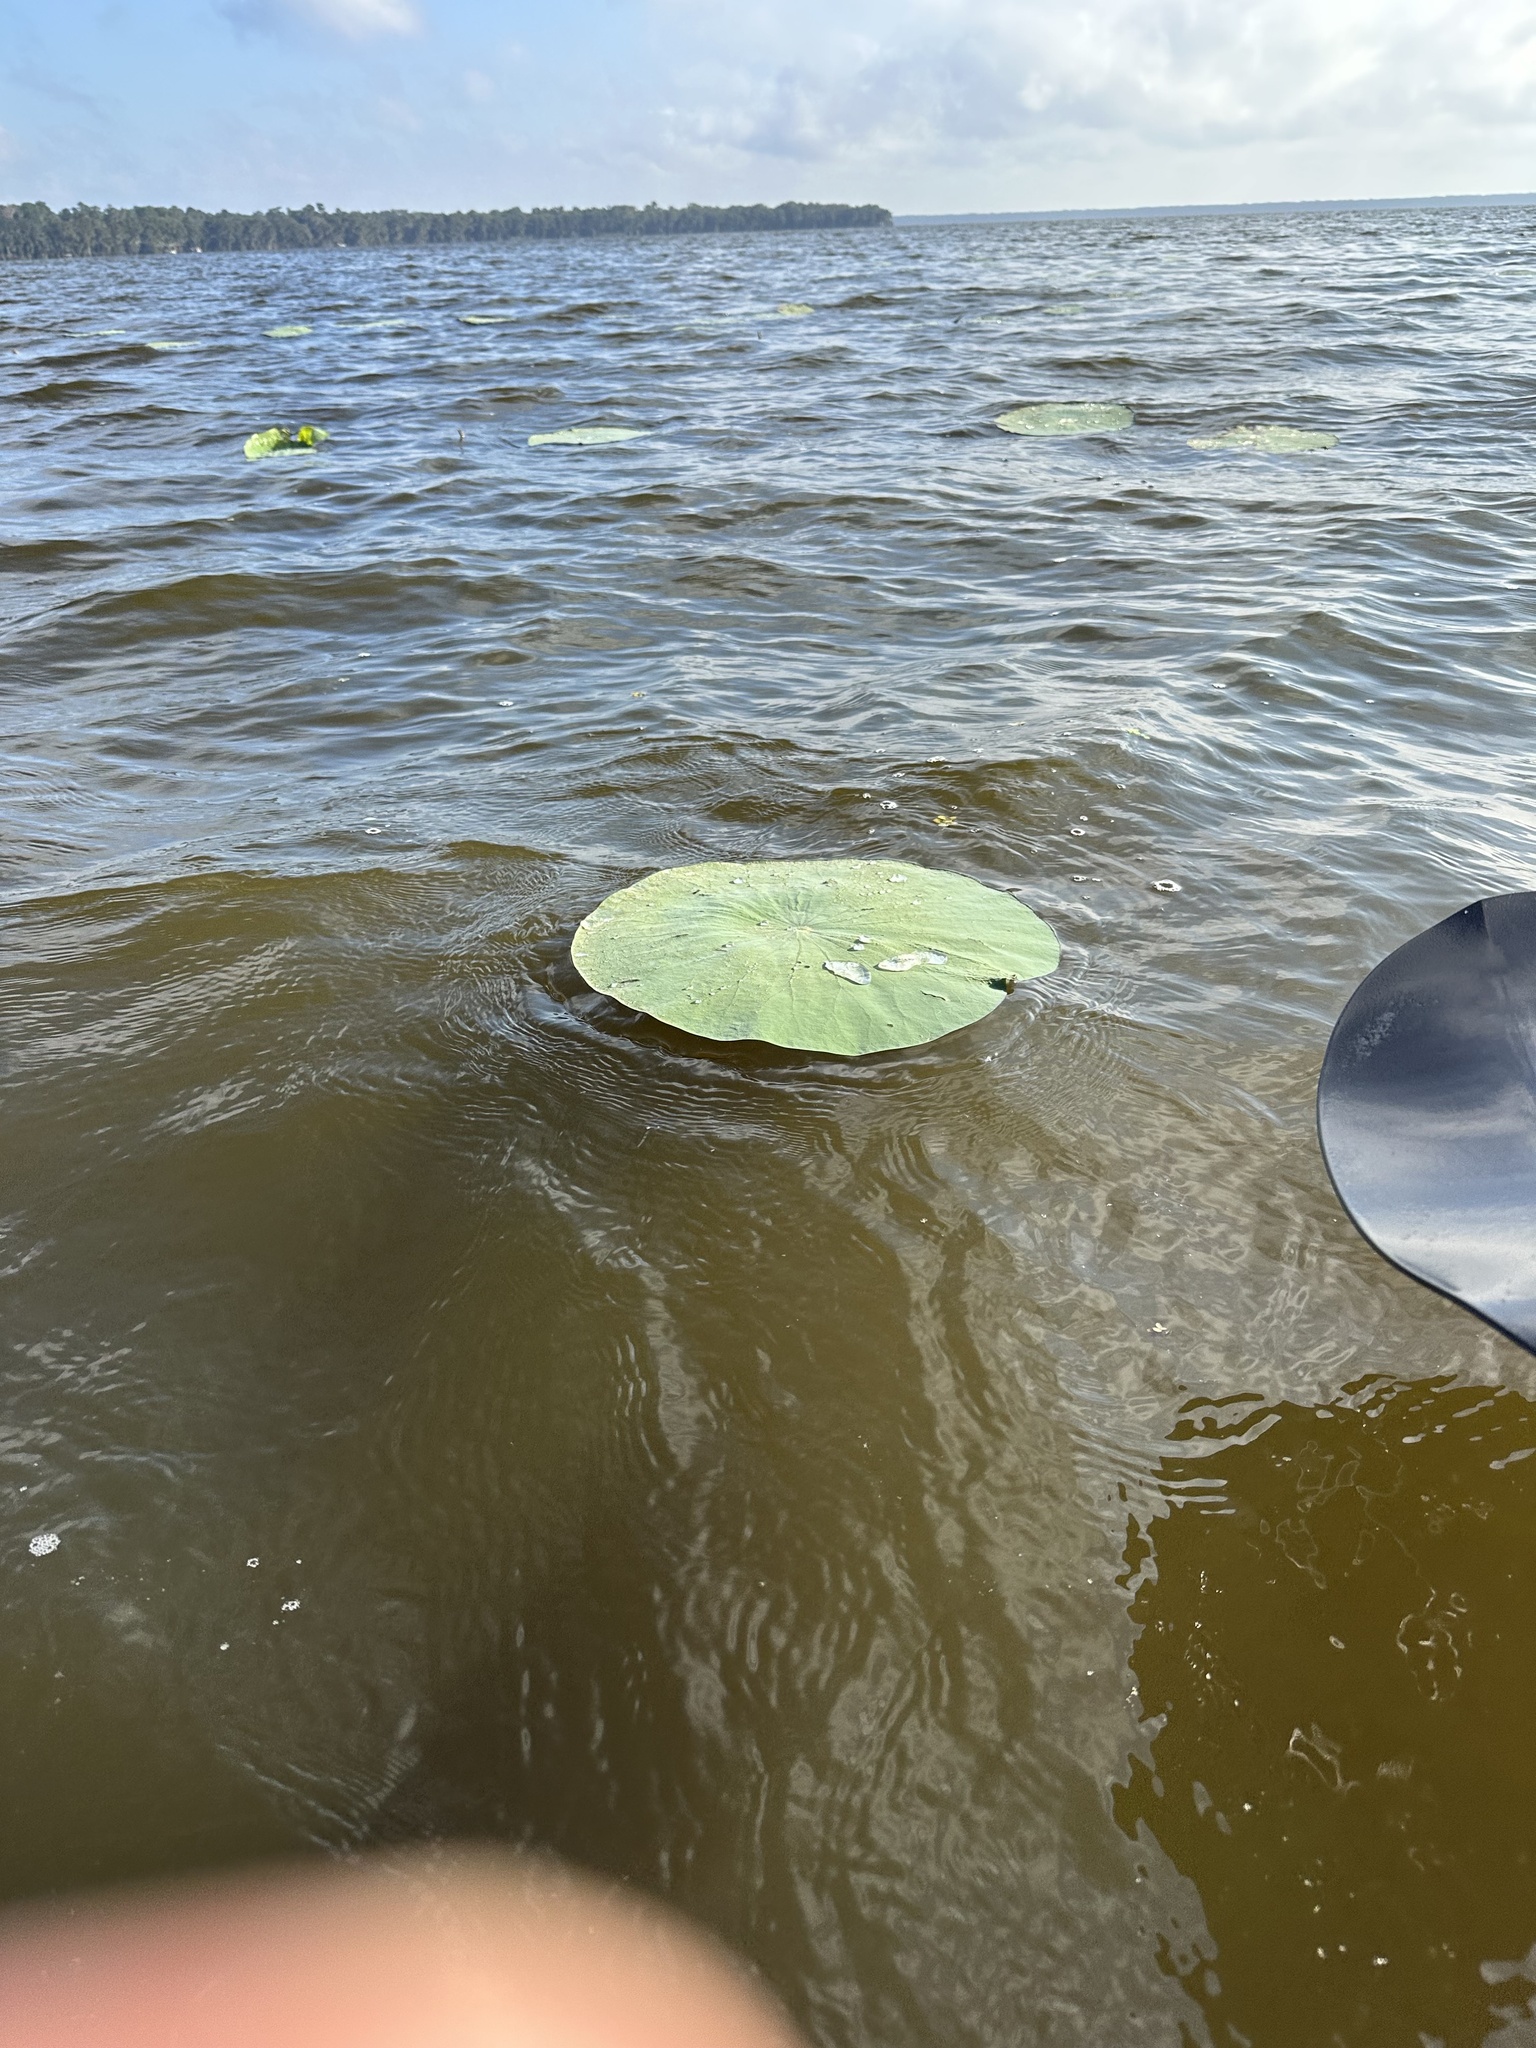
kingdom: Plantae
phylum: Tracheophyta
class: Magnoliopsida
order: Proteales
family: Nelumbonaceae
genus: Nelumbo
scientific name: Nelumbo lutea
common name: American lotus
